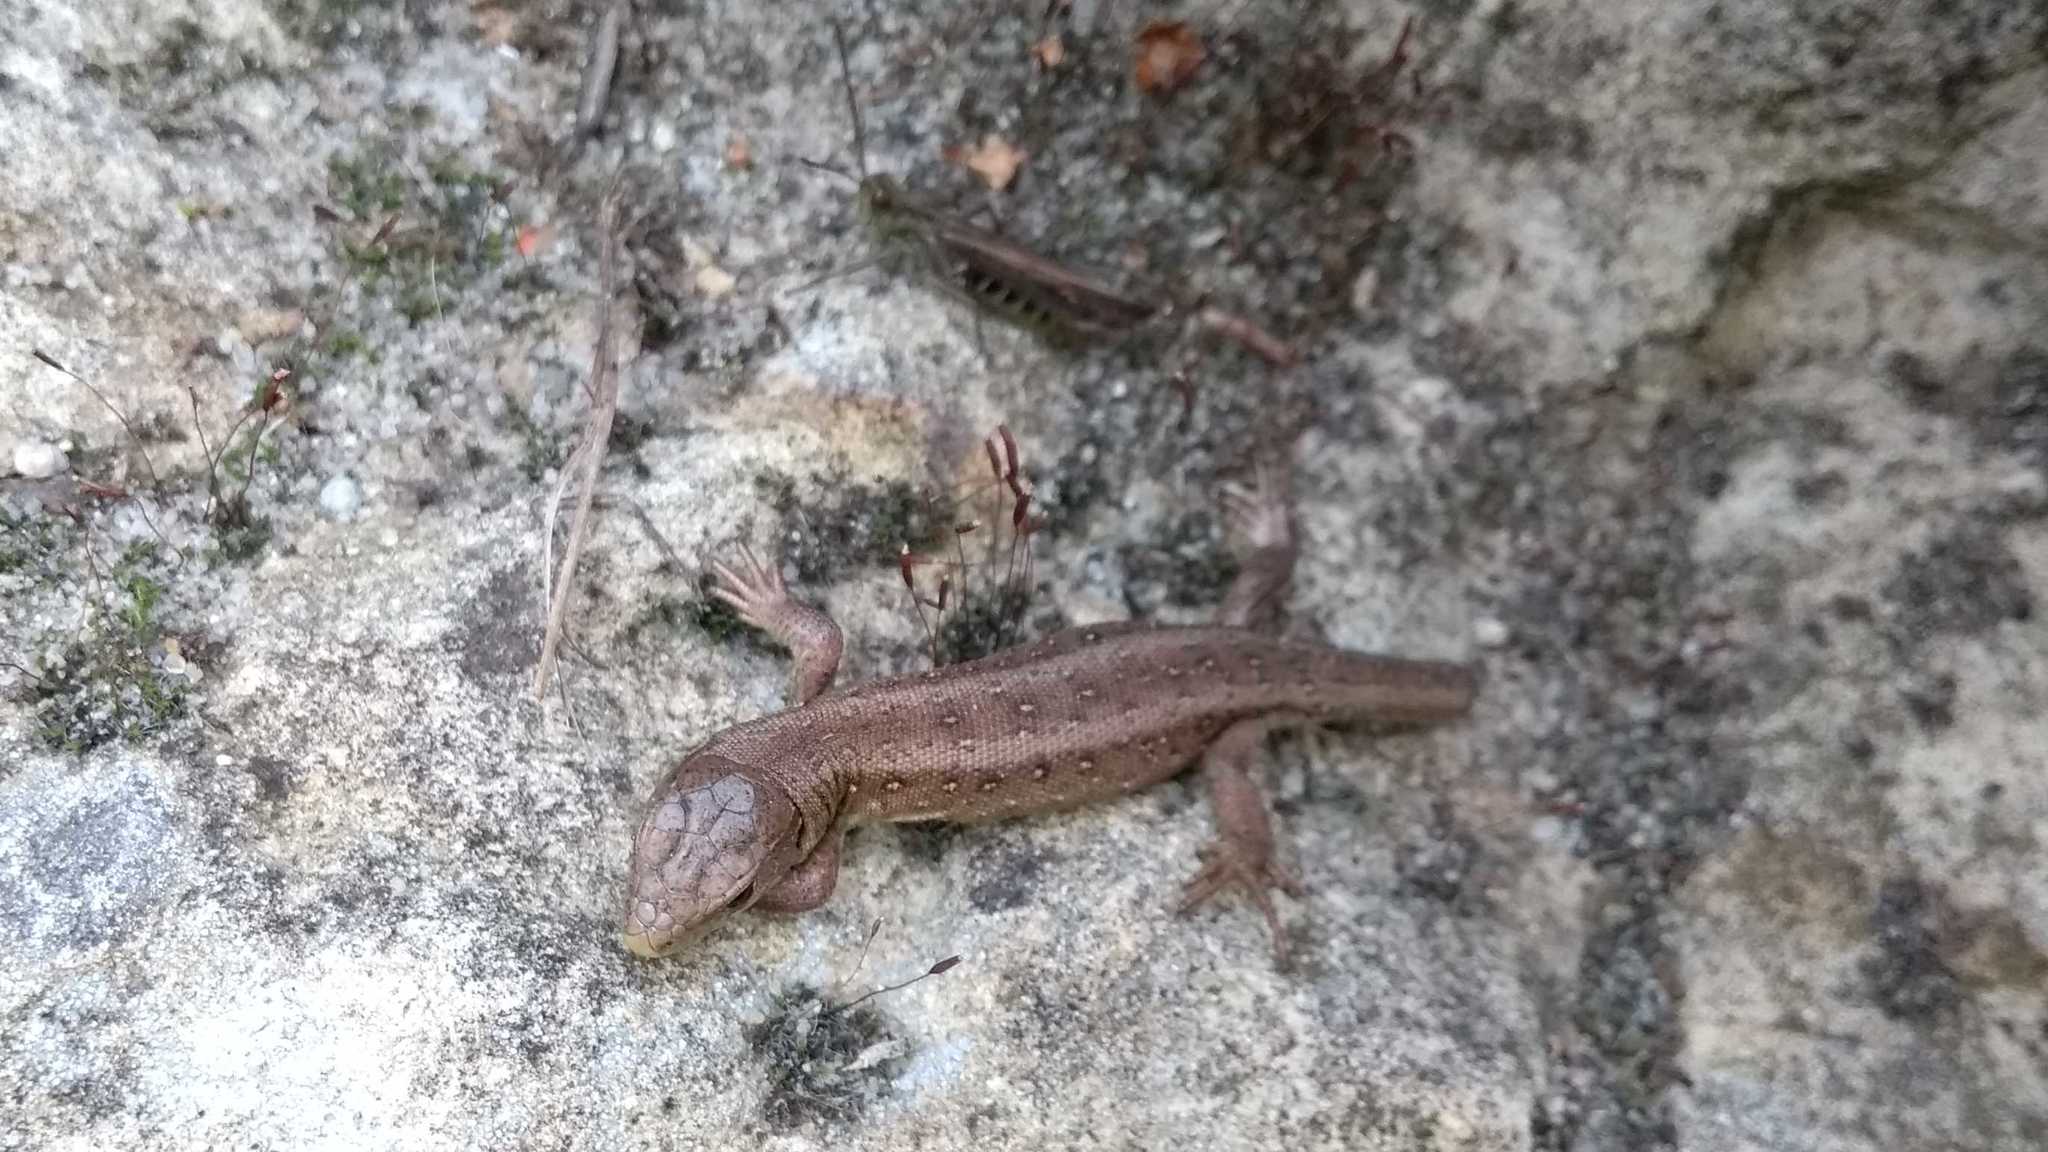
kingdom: Animalia
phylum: Chordata
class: Squamata
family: Lacertidae
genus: Lacerta
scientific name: Lacerta agilis
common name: Sand lizard
